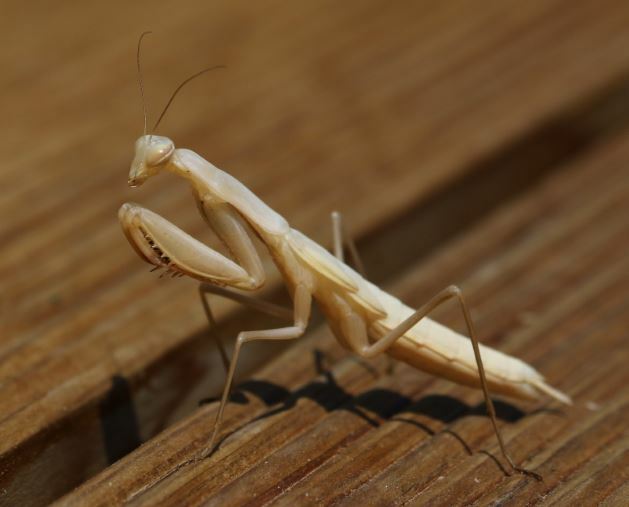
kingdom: Animalia
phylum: Arthropoda
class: Insecta
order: Mantodea
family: Mantidae
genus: Mantis
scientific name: Mantis religiosa
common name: Praying mantis
